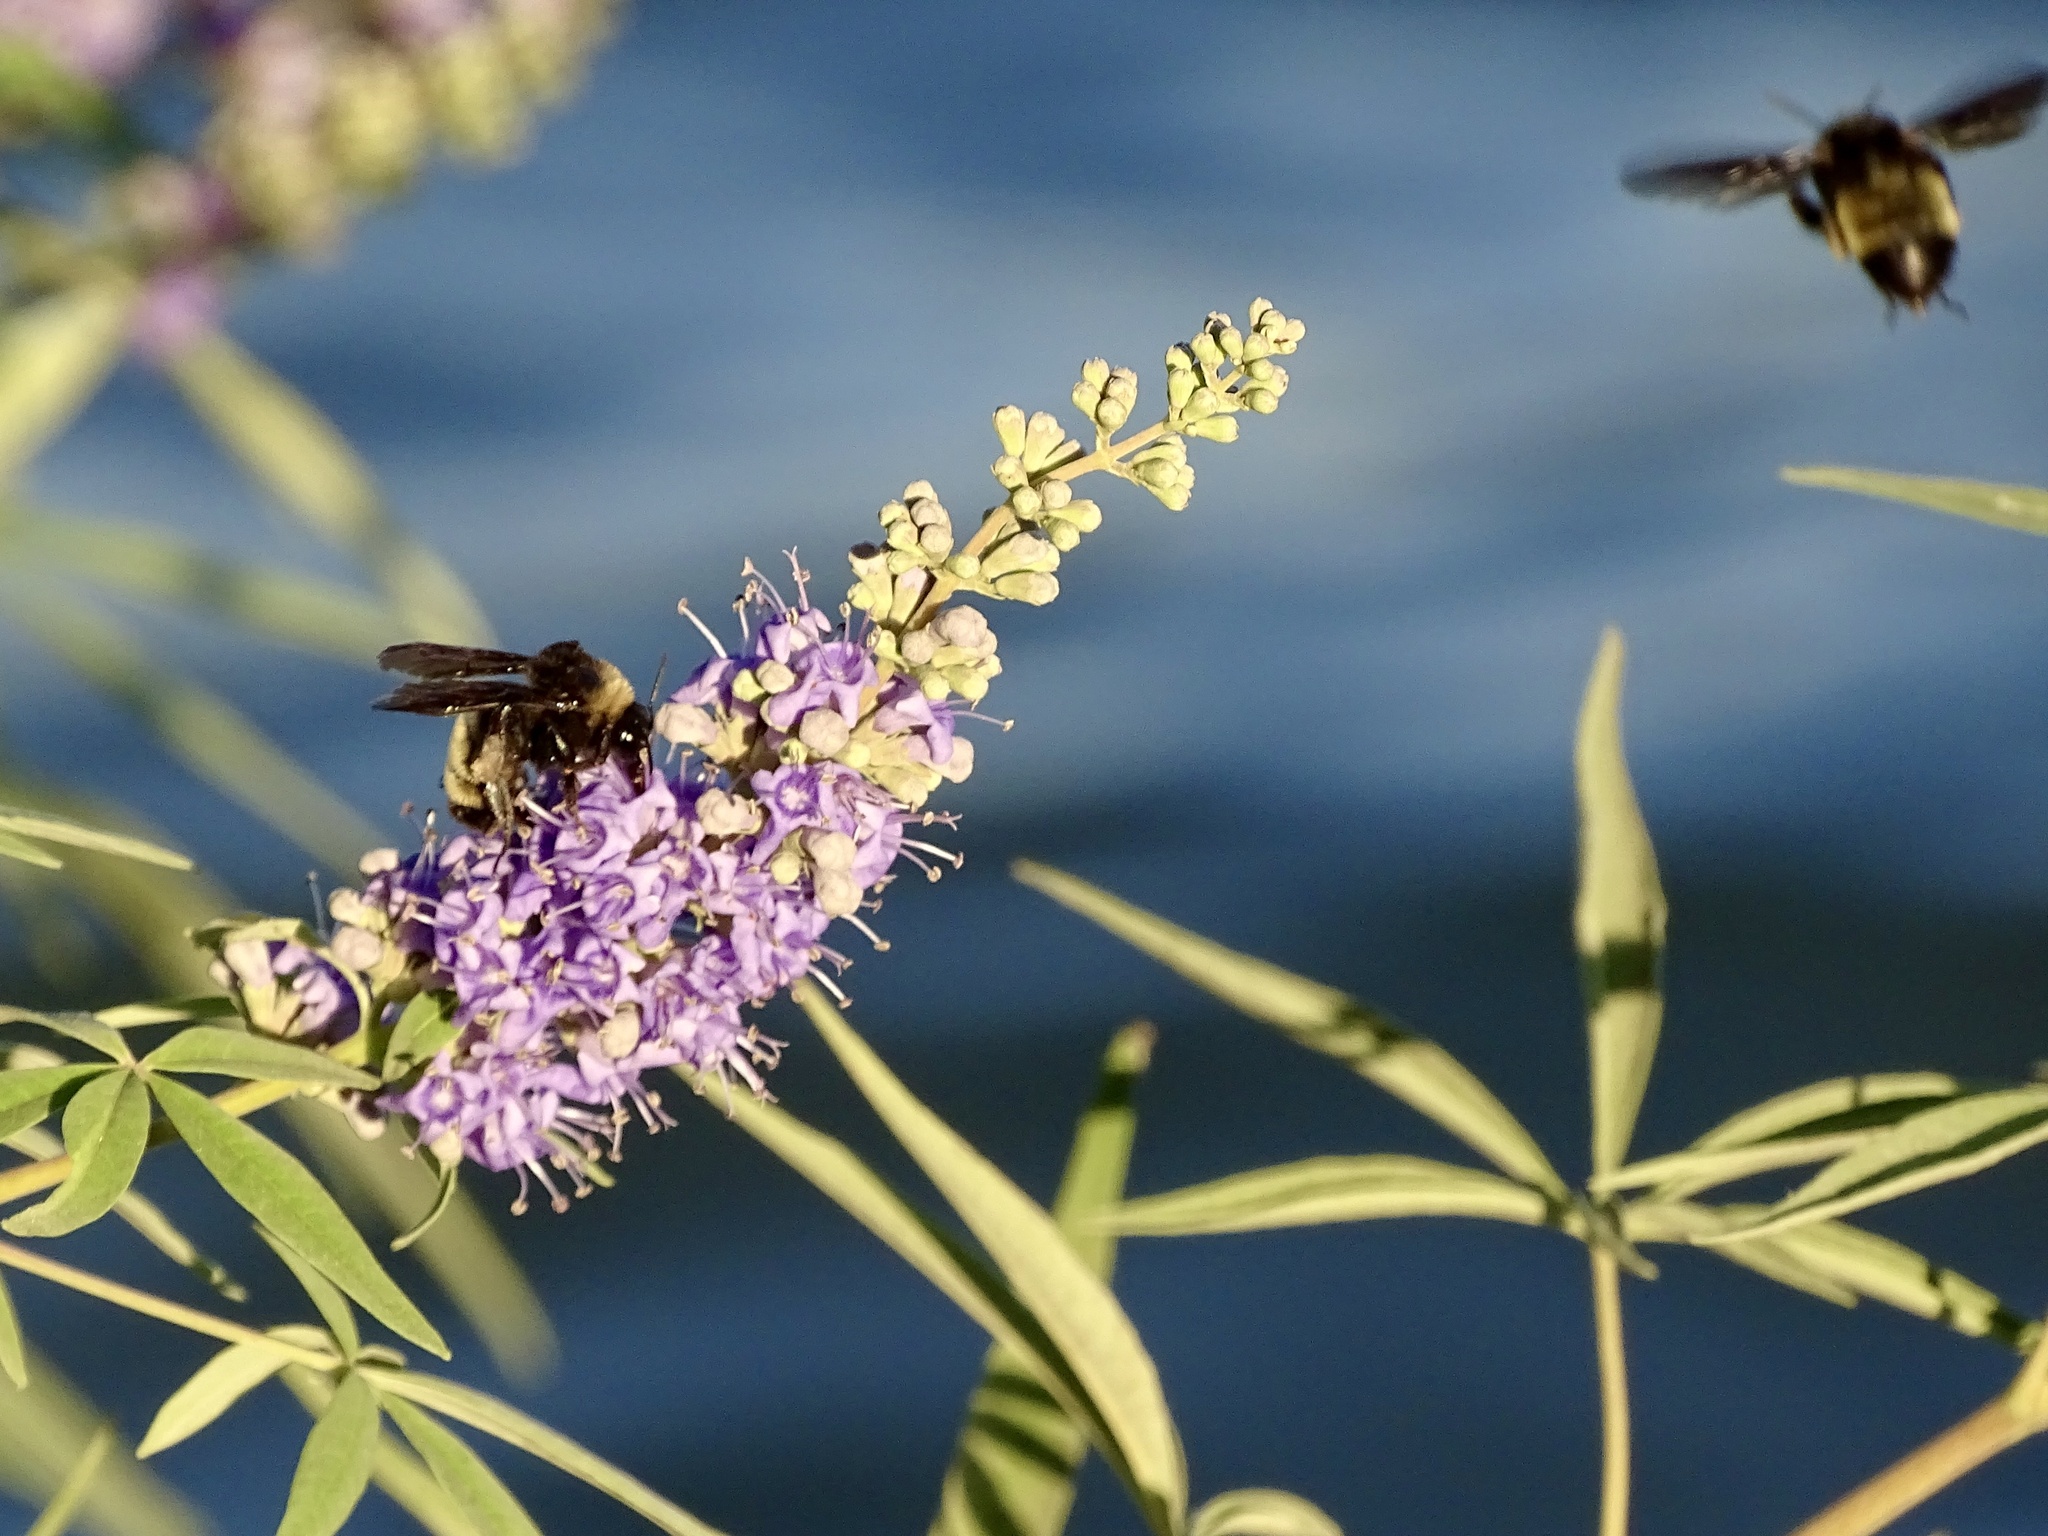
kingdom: Animalia
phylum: Arthropoda
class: Insecta
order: Hymenoptera
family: Apidae
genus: Bombus
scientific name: Bombus pensylvanicus
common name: Bumble bee
